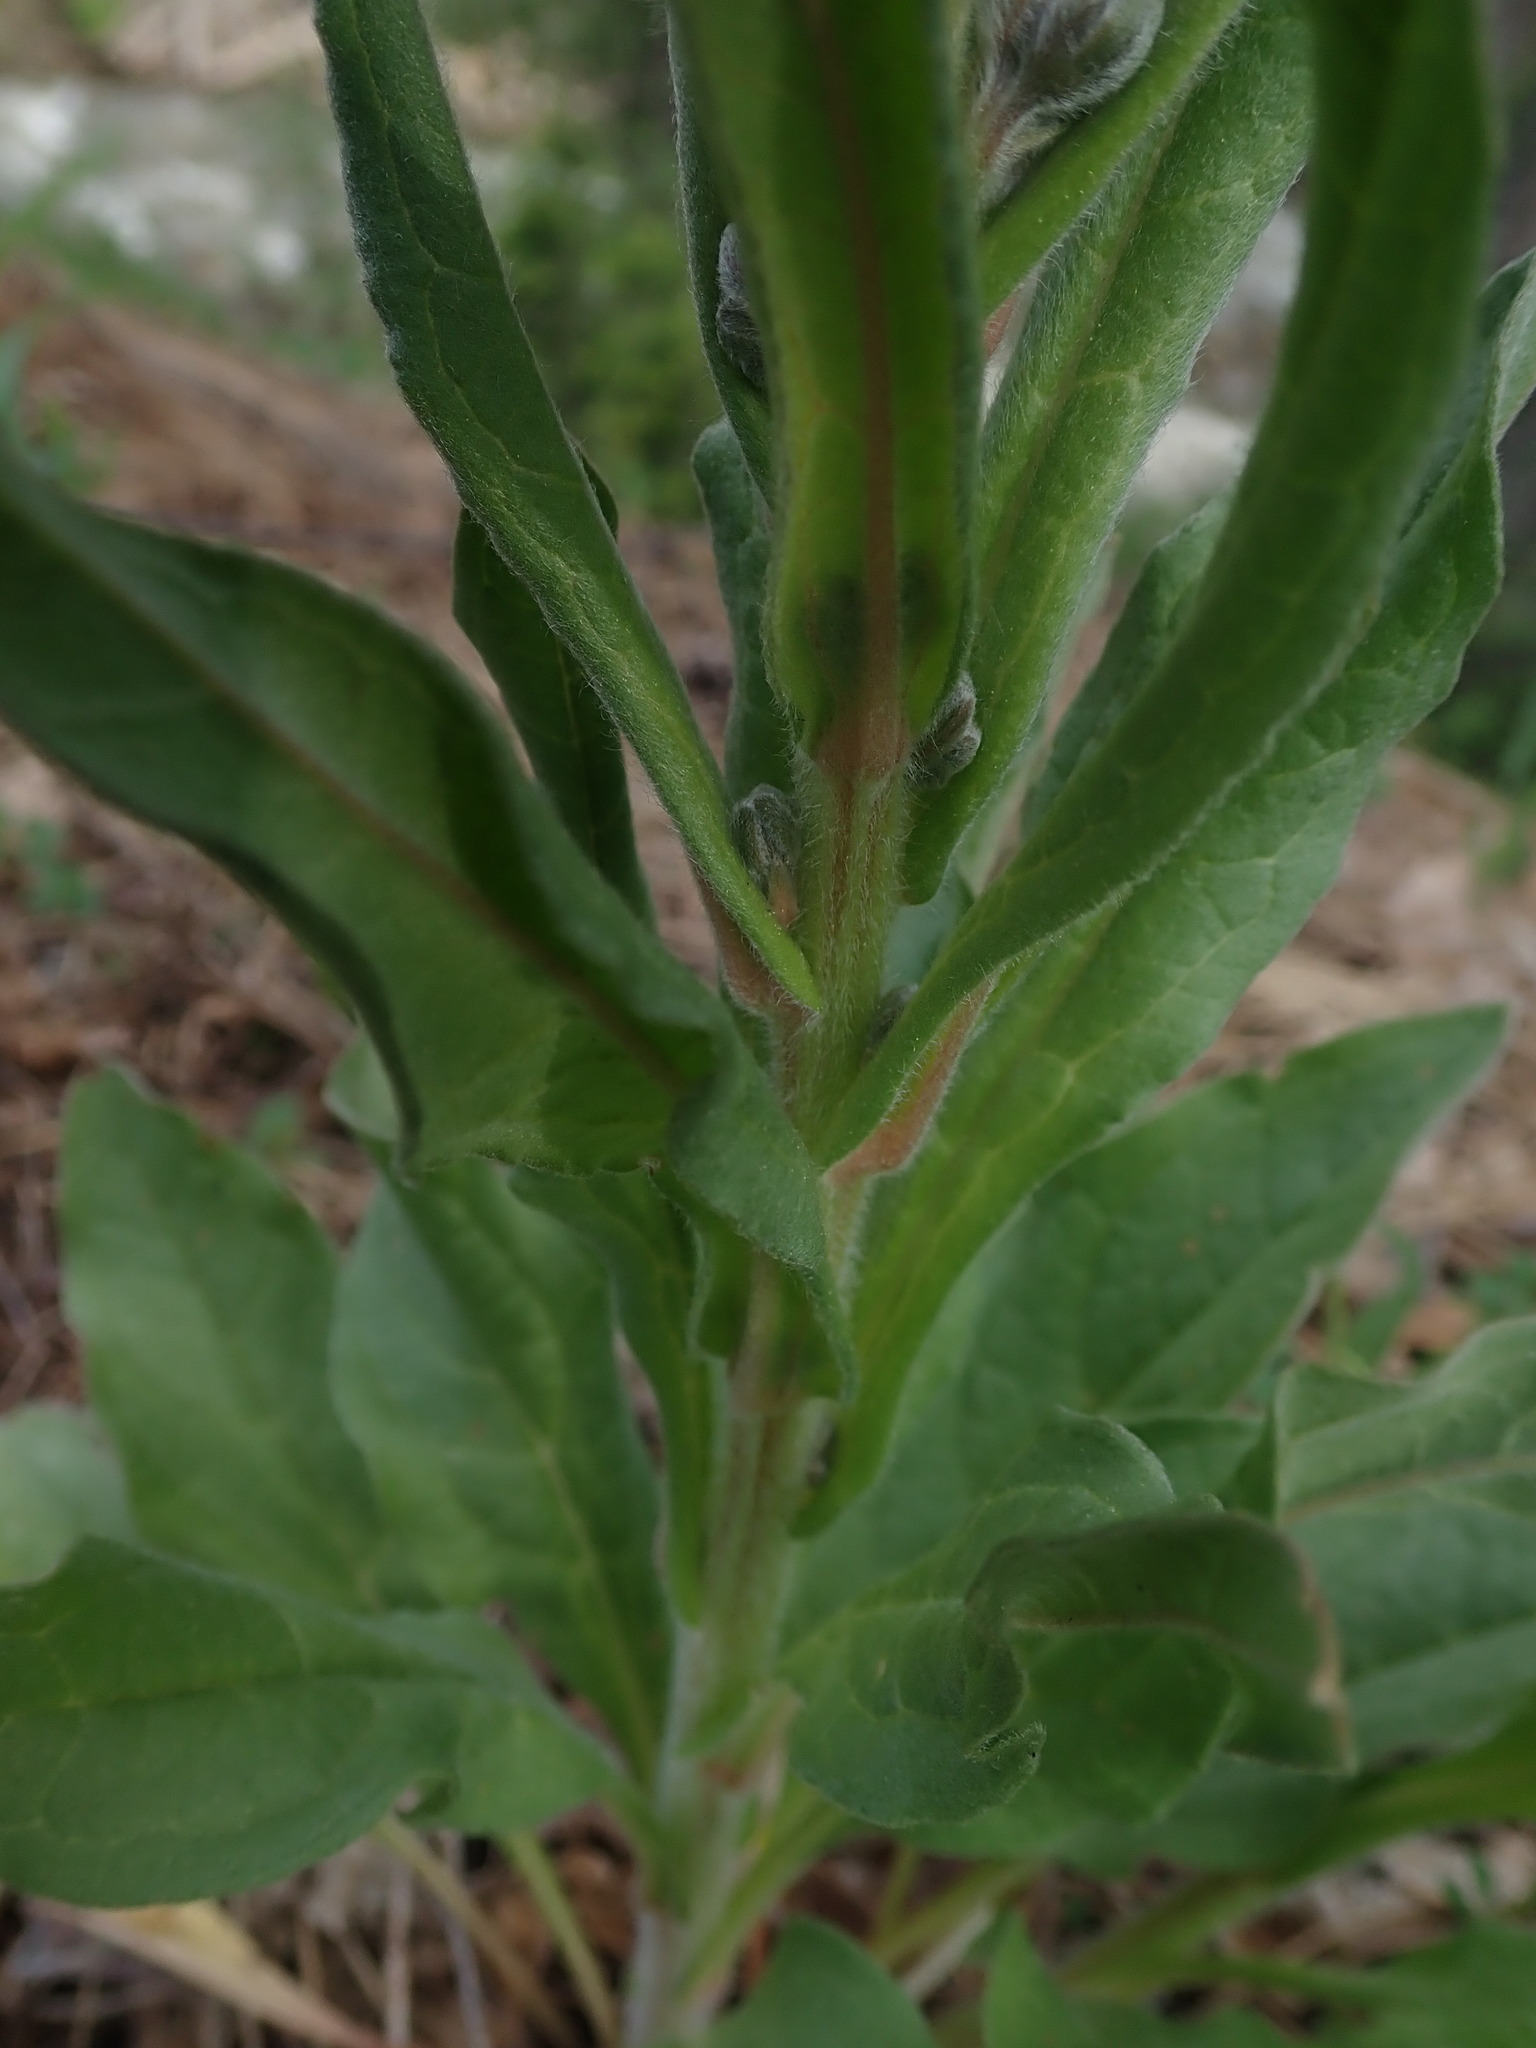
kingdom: Plantae
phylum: Tracheophyta
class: Magnoliopsida
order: Boraginales
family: Boraginaceae
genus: Cynoglossum
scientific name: Cynoglossum officinale
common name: Hound's-tongue
